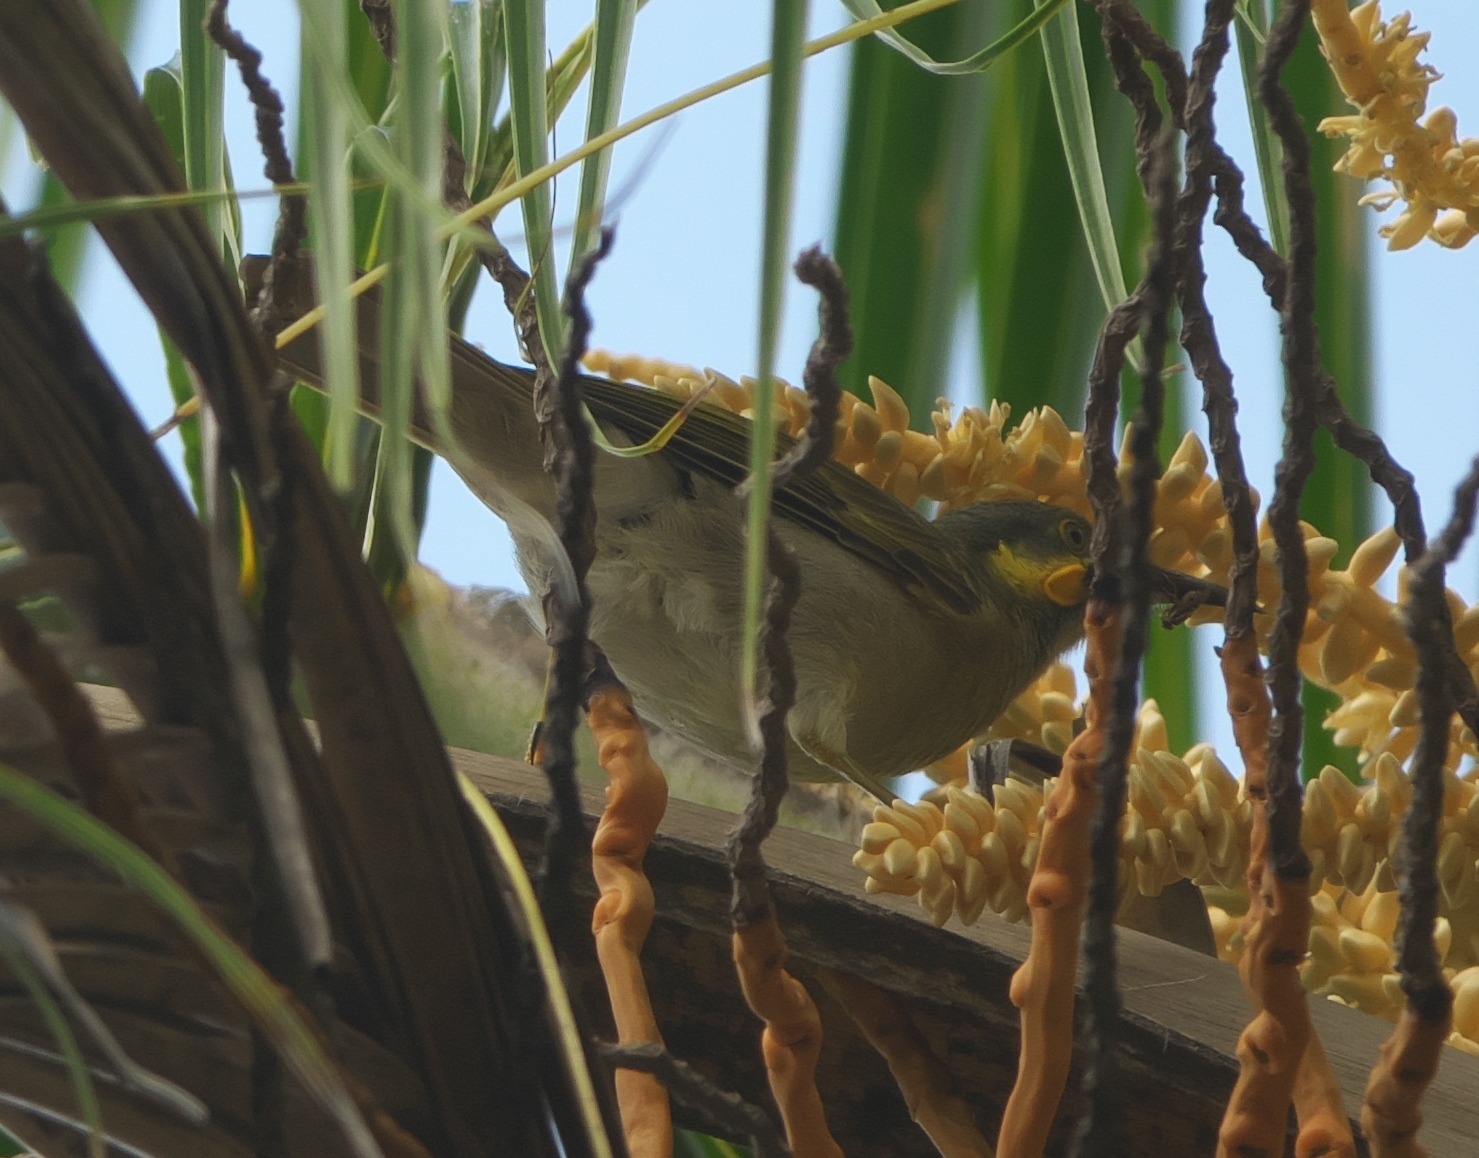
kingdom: Animalia
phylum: Chordata
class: Aves
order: Passeriformes
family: Meliphagidae
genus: Foulehaio
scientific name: Foulehaio carunculatus
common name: Eastern wattled-honeyeater
